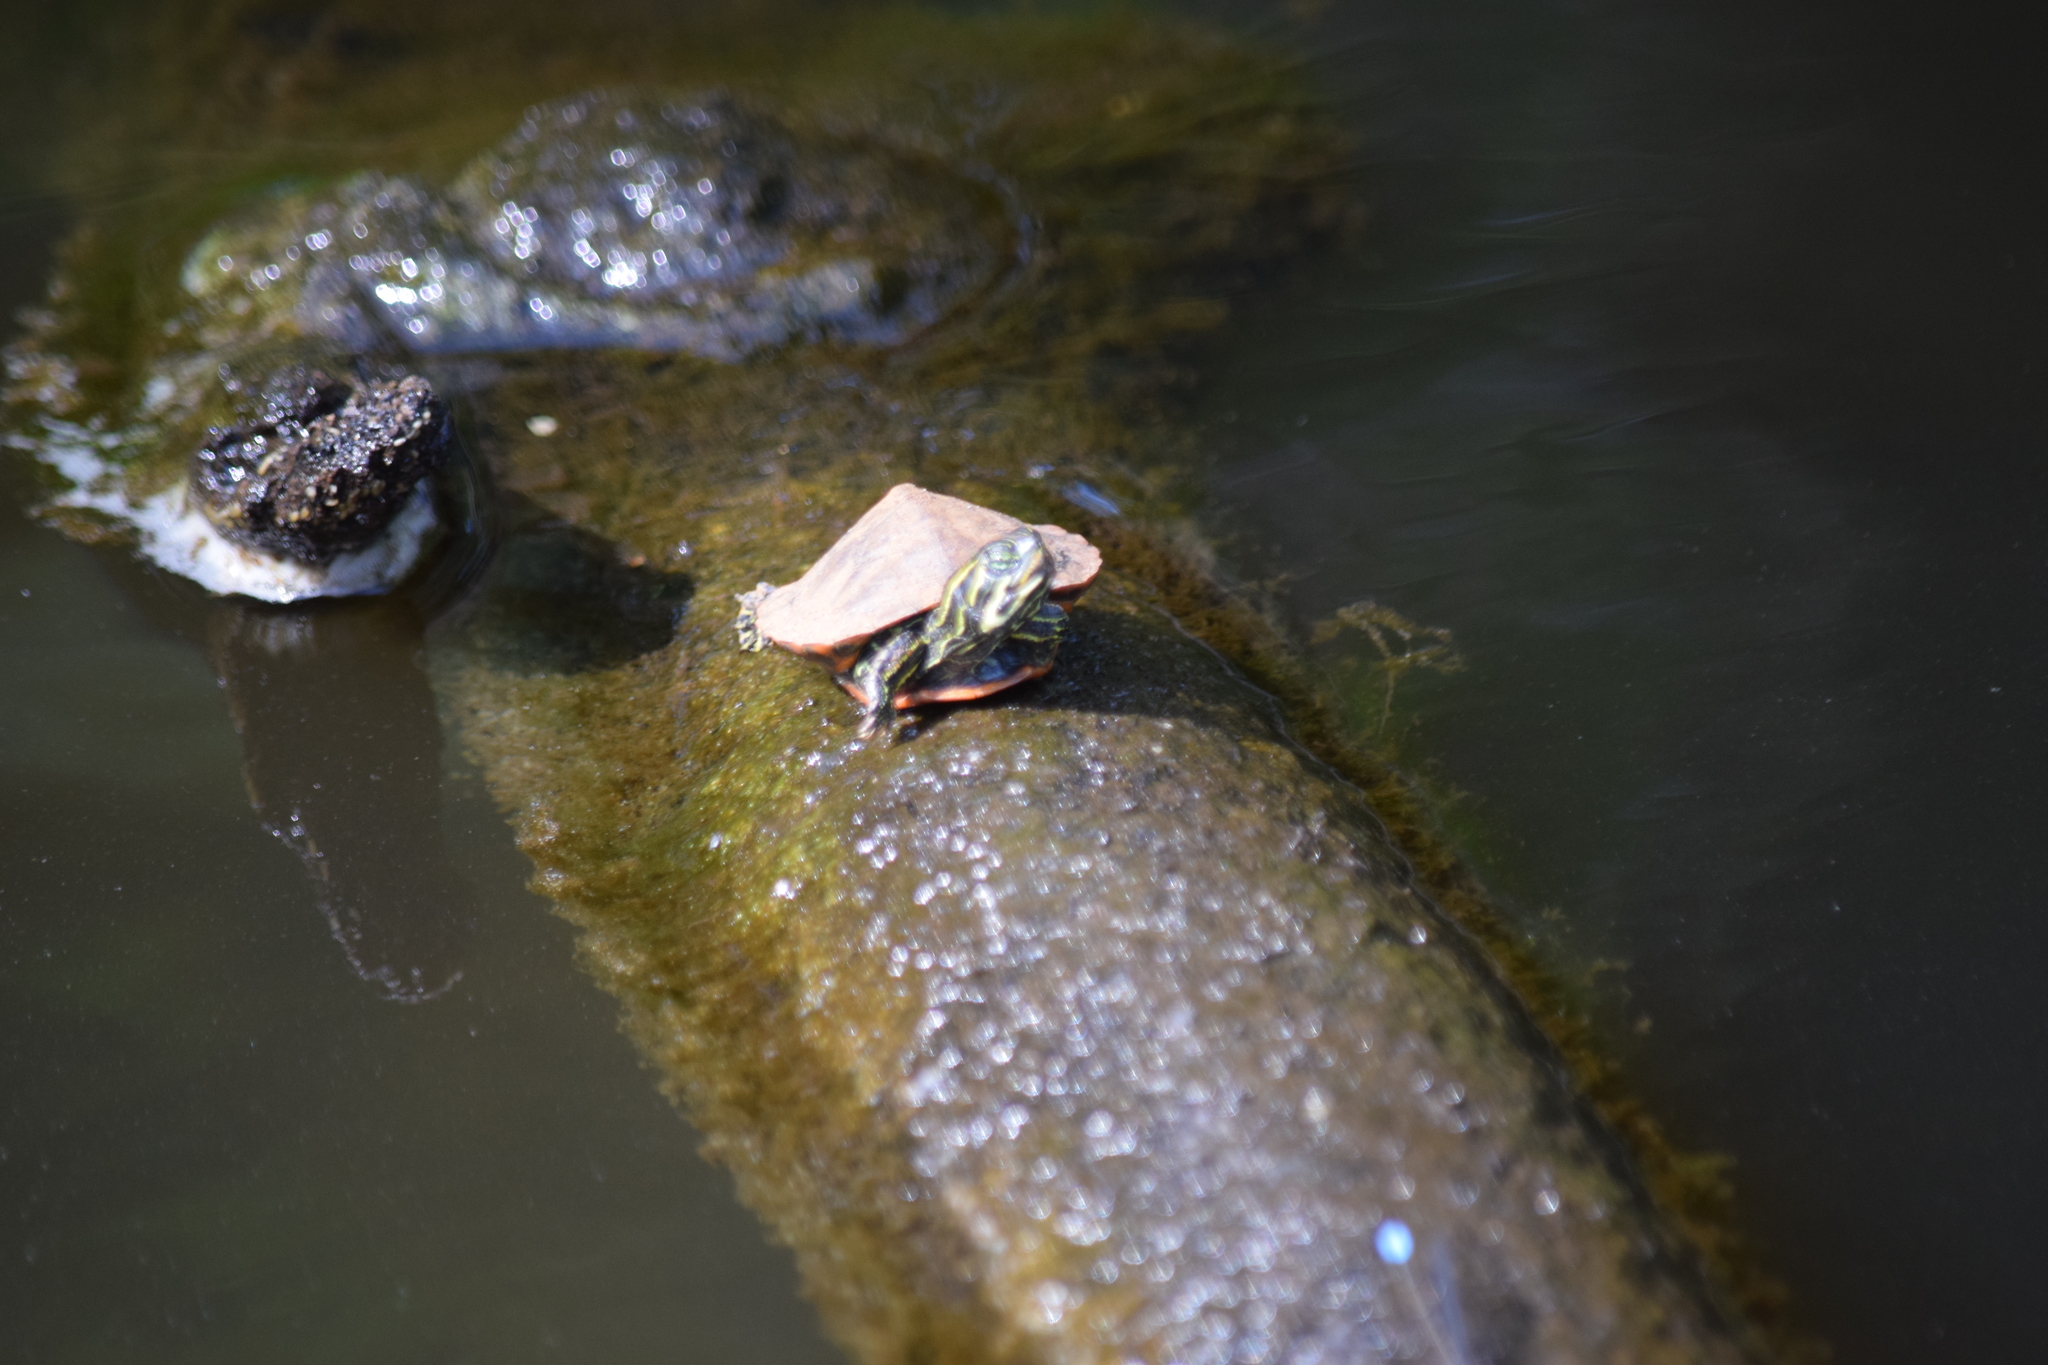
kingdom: Animalia
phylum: Chordata
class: Testudines
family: Emydidae
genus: Pseudemys
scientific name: Pseudemys rubriventris
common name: American red-bellied turtle
